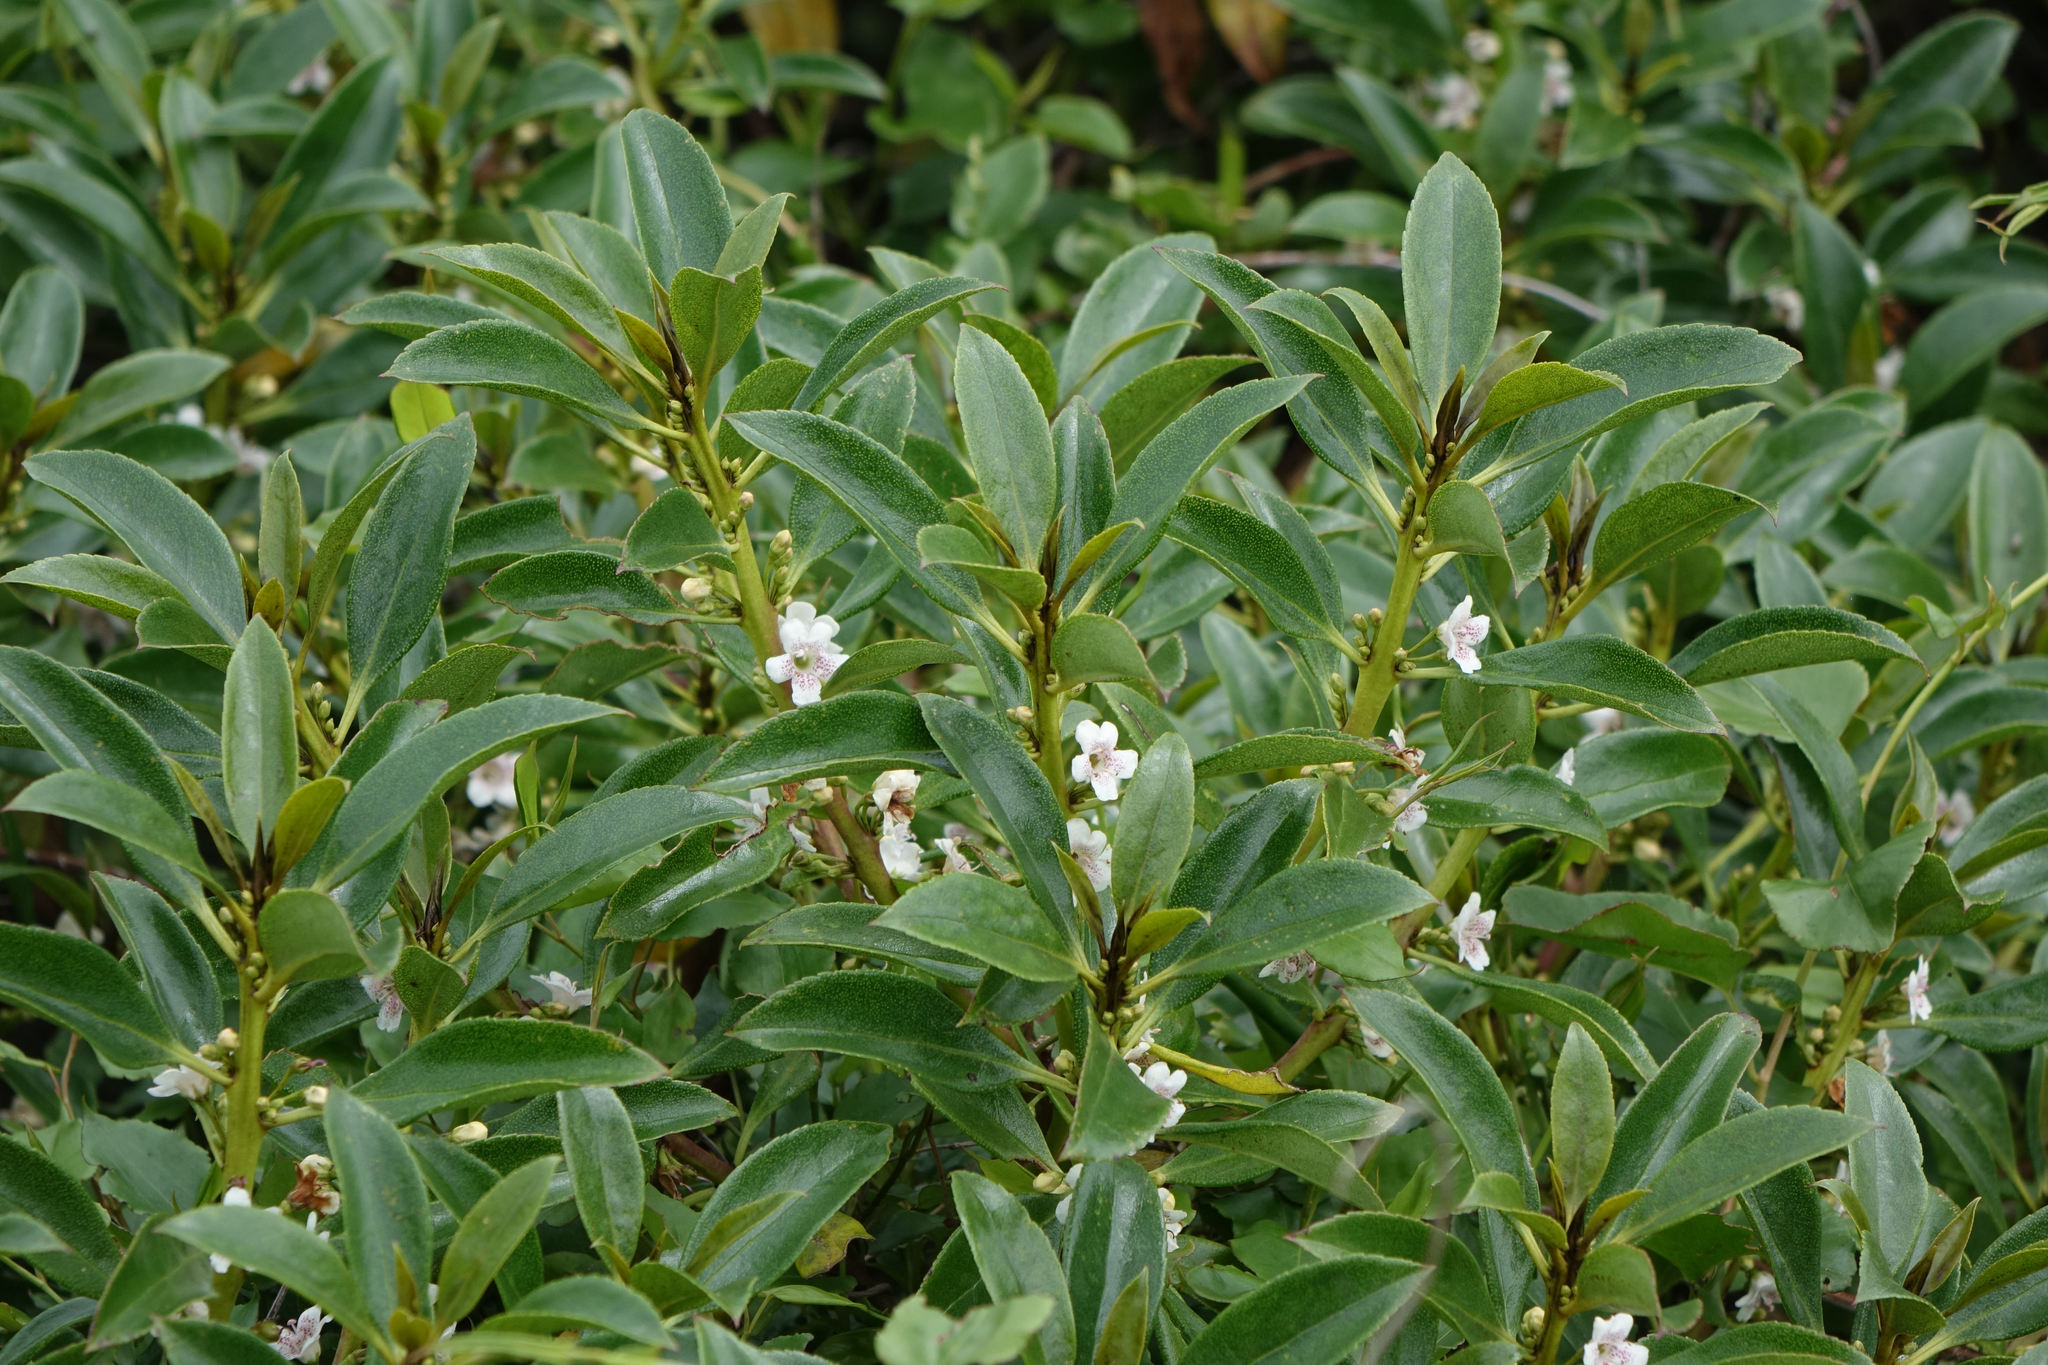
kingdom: Plantae
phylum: Tracheophyta
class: Magnoliopsida
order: Lamiales
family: Scrophulariaceae
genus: Myoporum
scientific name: Myoporum laetum
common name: Ngaio tree
